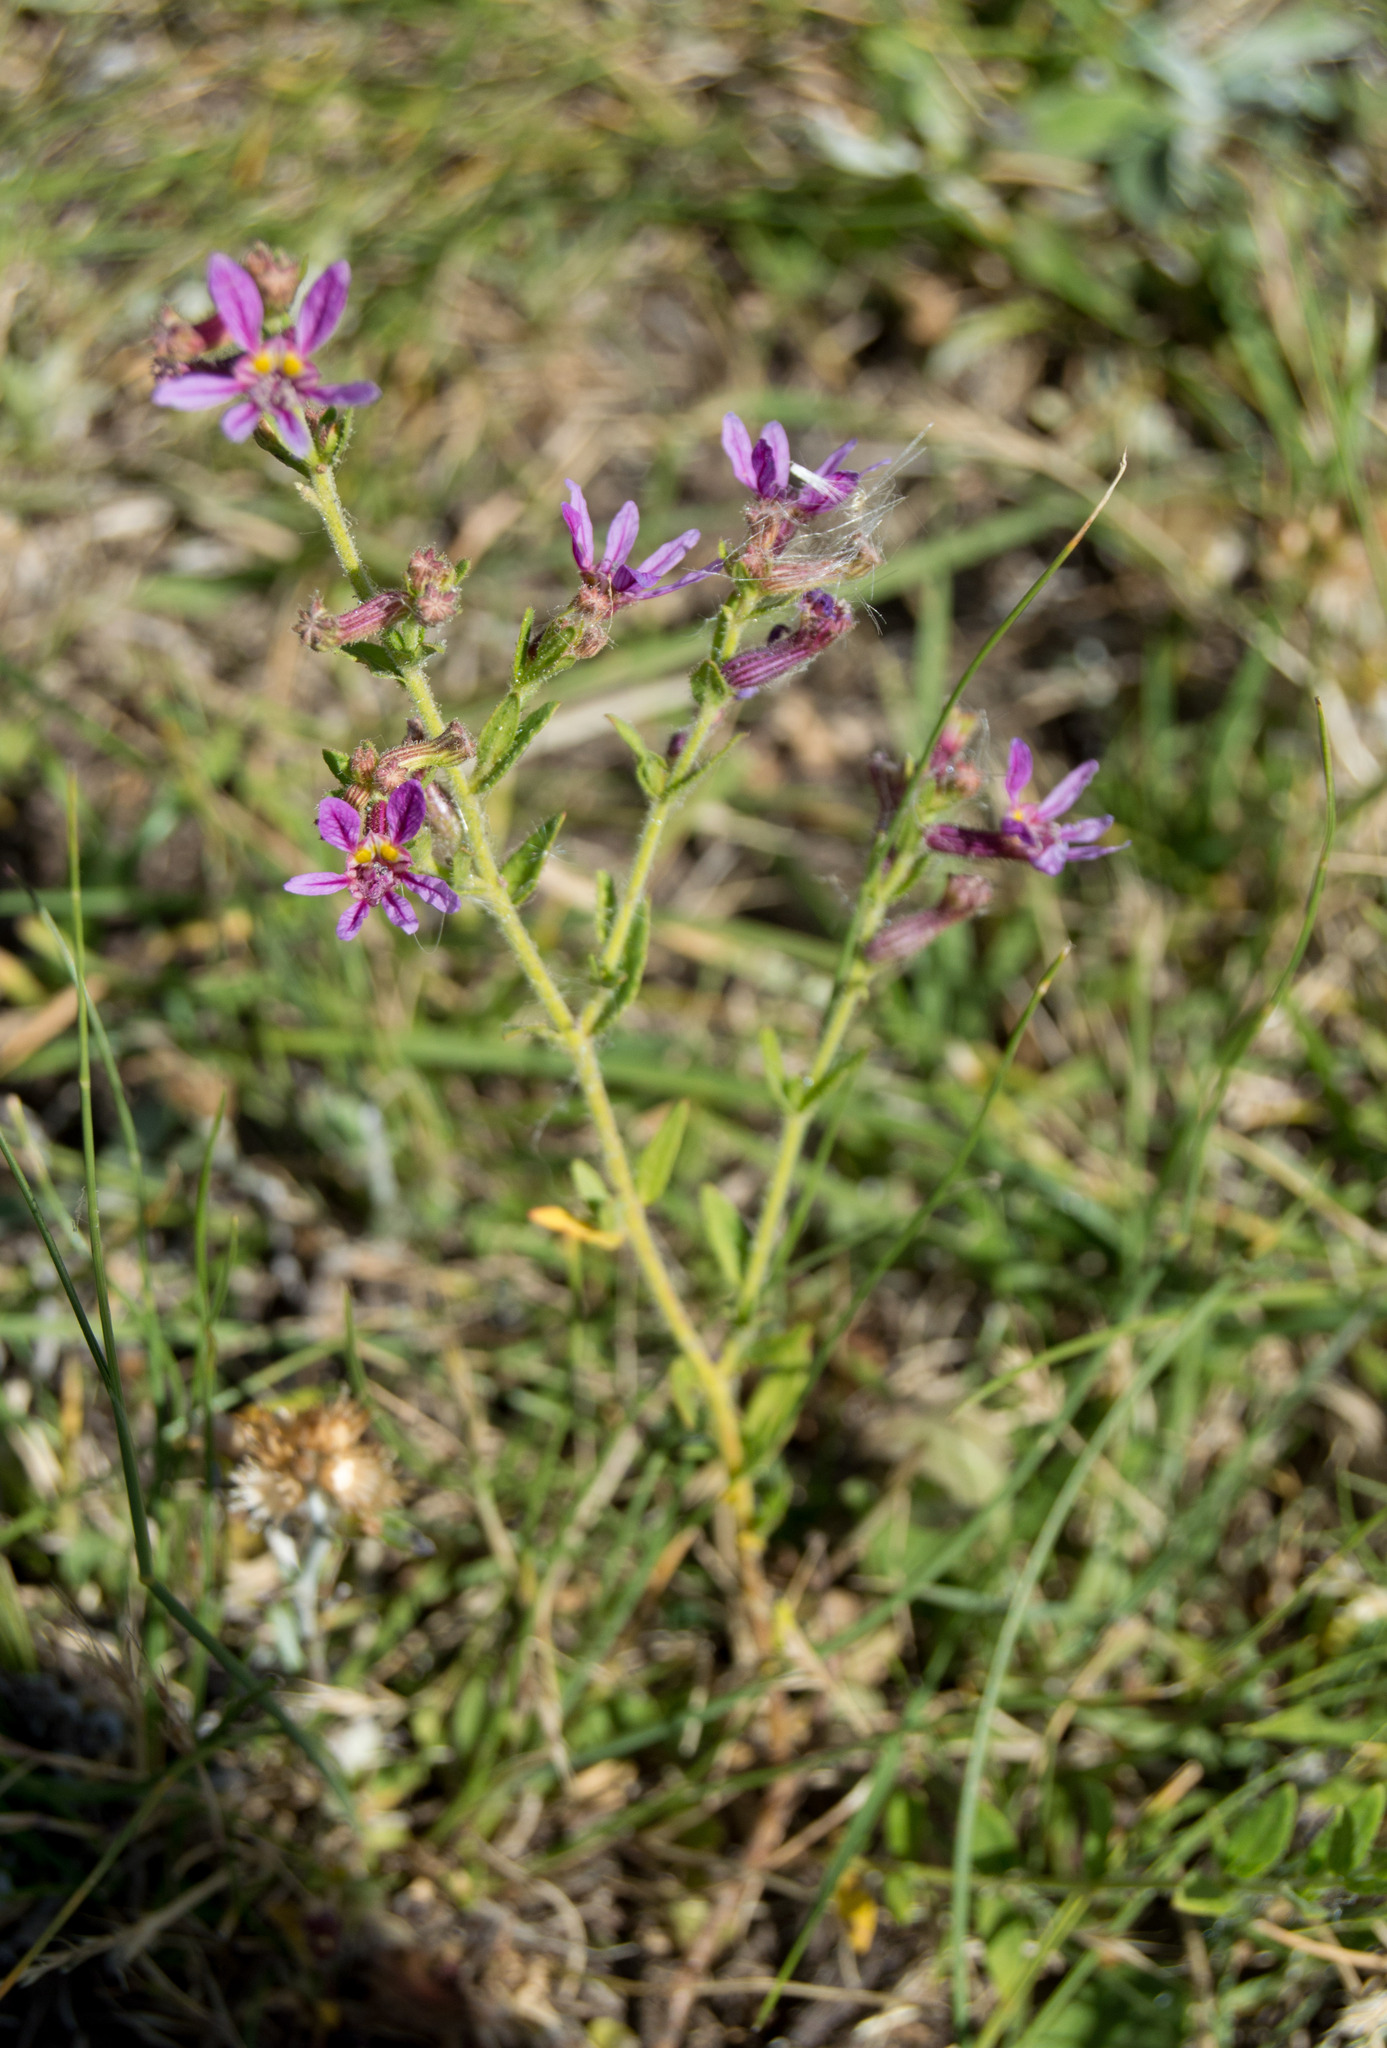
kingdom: Plantae
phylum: Tracheophyta
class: Magnoliopsida
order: Myrtales
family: Lythraceae
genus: Cuphea
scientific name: Cuphea glutinosa
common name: Sticky waxweed
